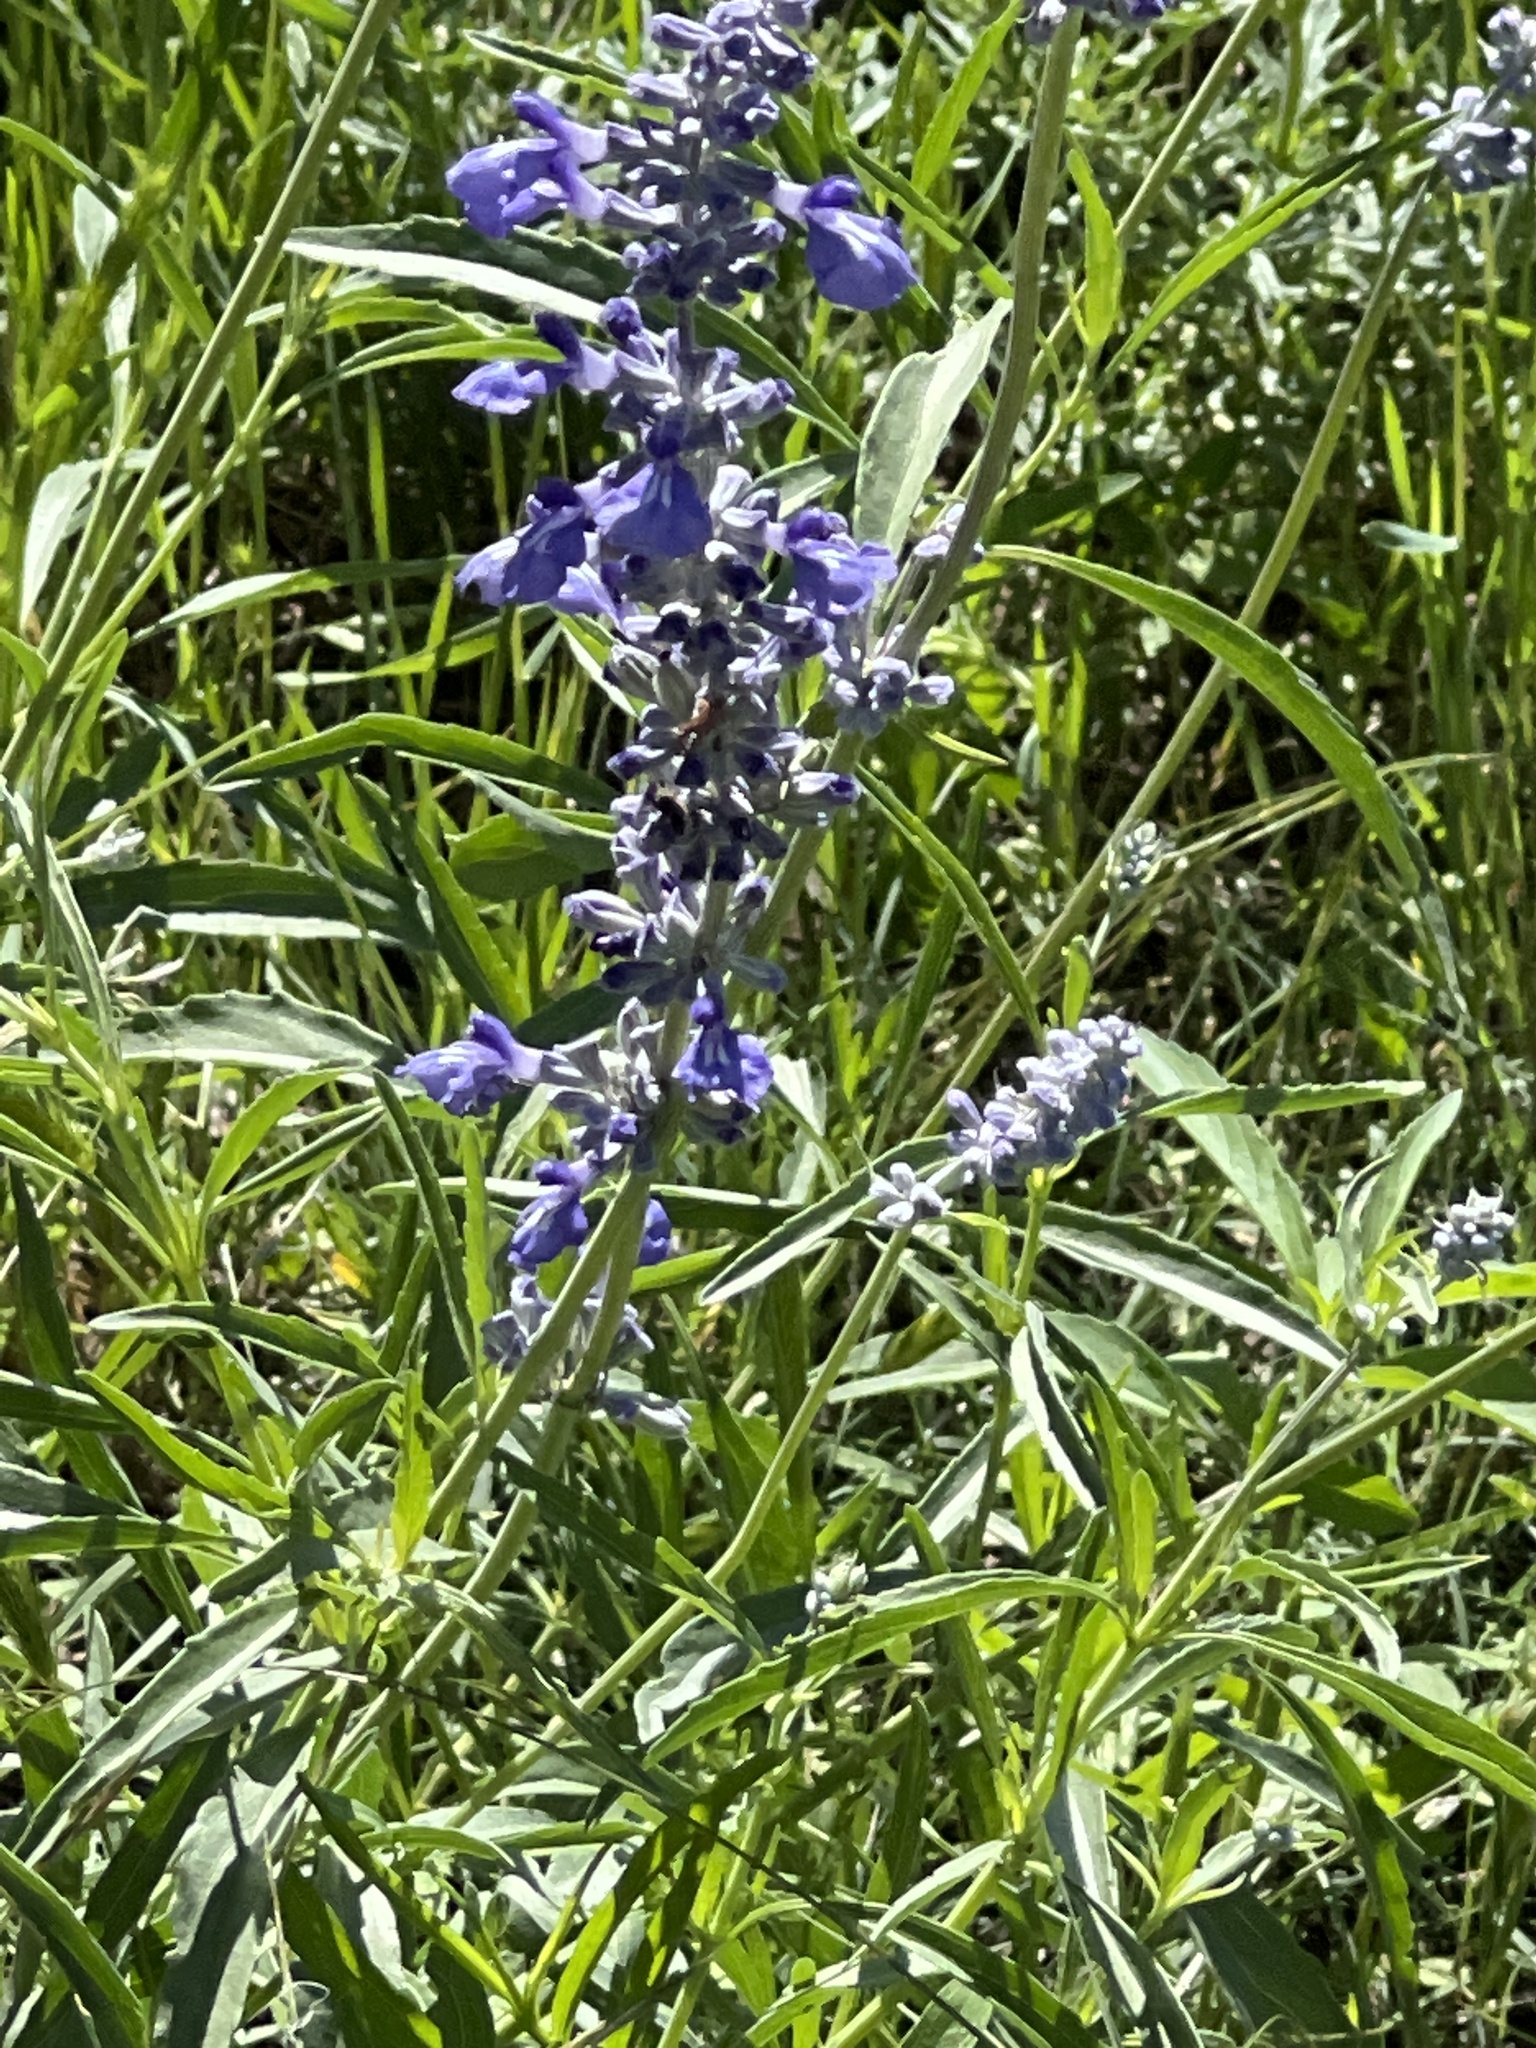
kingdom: Plantae
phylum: Tracheophyta
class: Magnoliopsida
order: Lamiales
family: Lamiaceae
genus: Salvia
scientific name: Salvia farinacea
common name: Mealy sage
